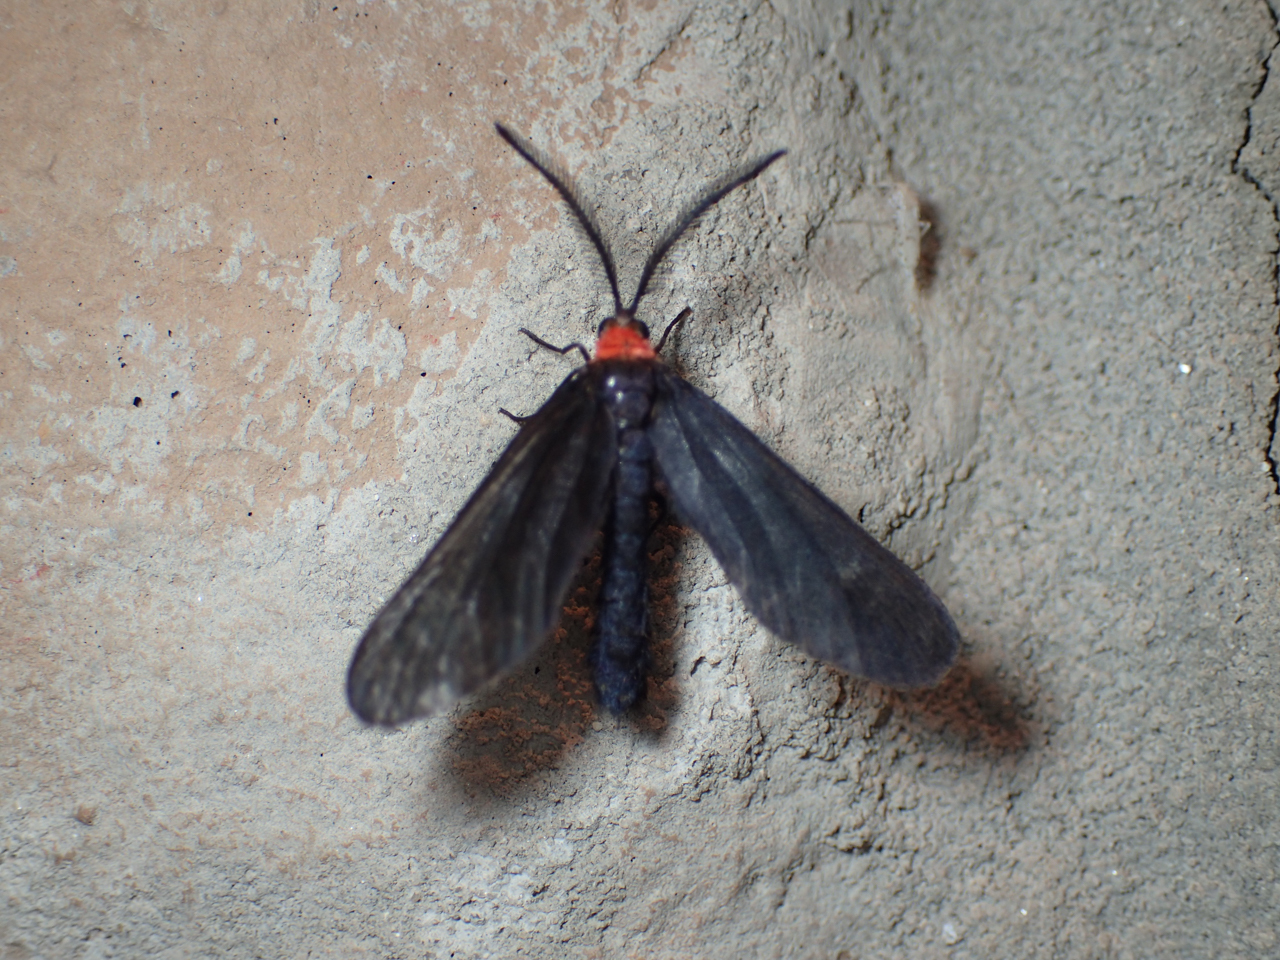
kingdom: Animalia
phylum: Arthropoda
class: Insecta
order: Lepidoptera
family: Zygaenidae
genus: Harrisina
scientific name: Harrisina americana
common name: Grapeleaf skeletonizer moth
